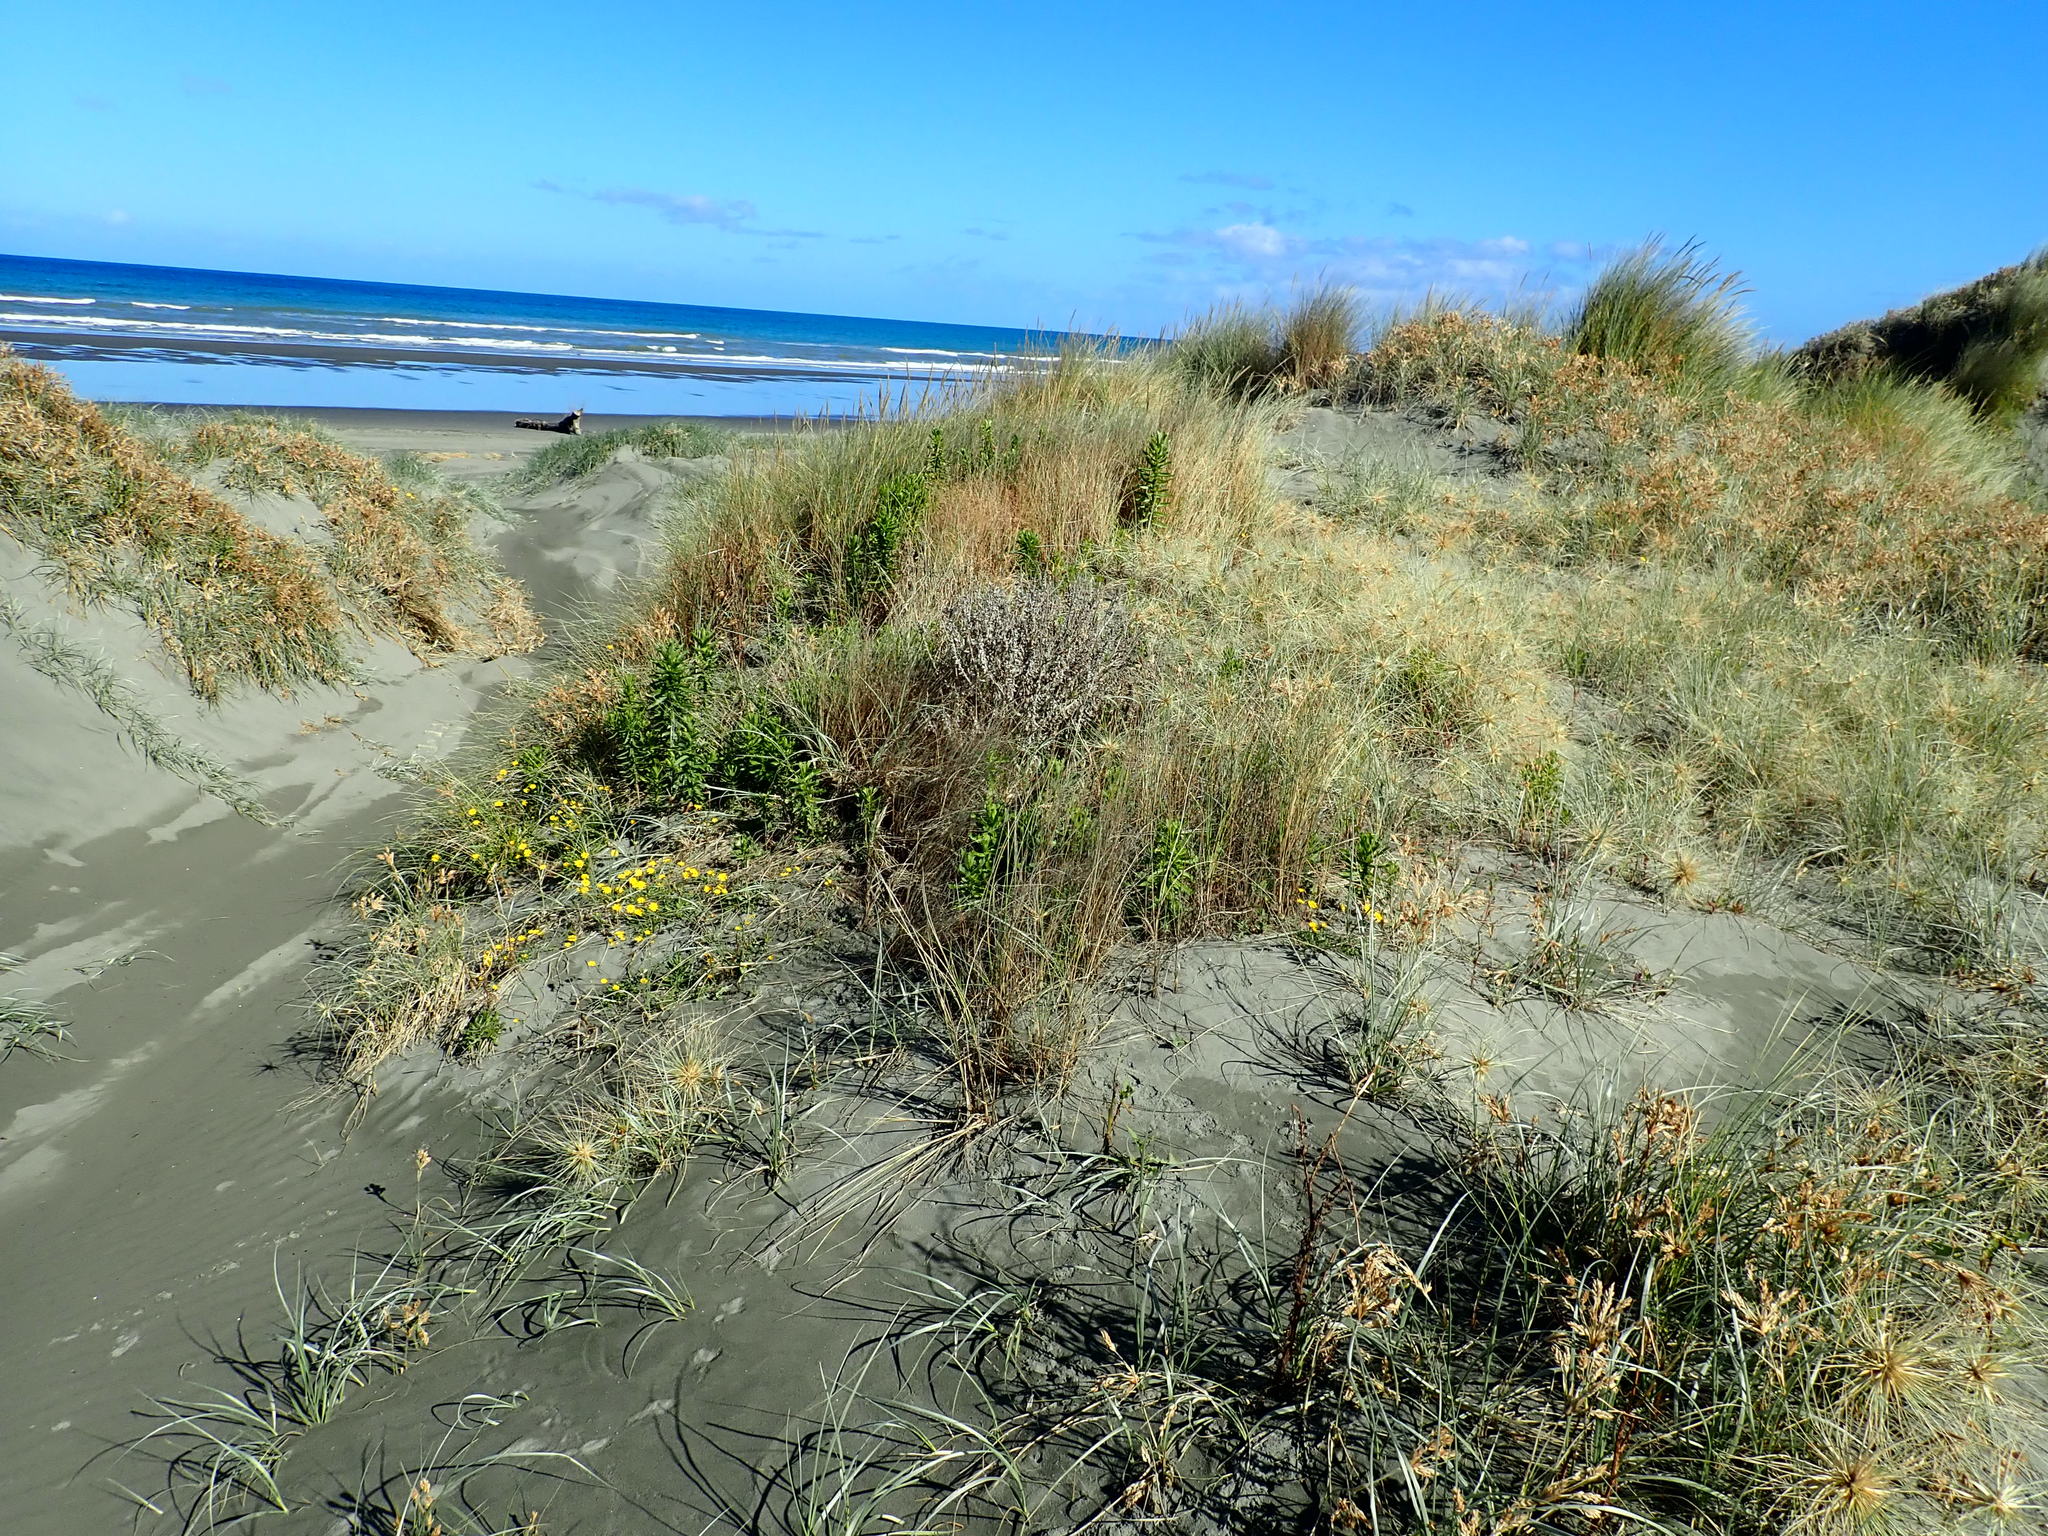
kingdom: Plantae
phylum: Tracheophyta
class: Magnoliopsida
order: Asterales
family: Asteraceae
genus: Senecio
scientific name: Senecio glastifolius
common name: Woad-leaved ragwort
